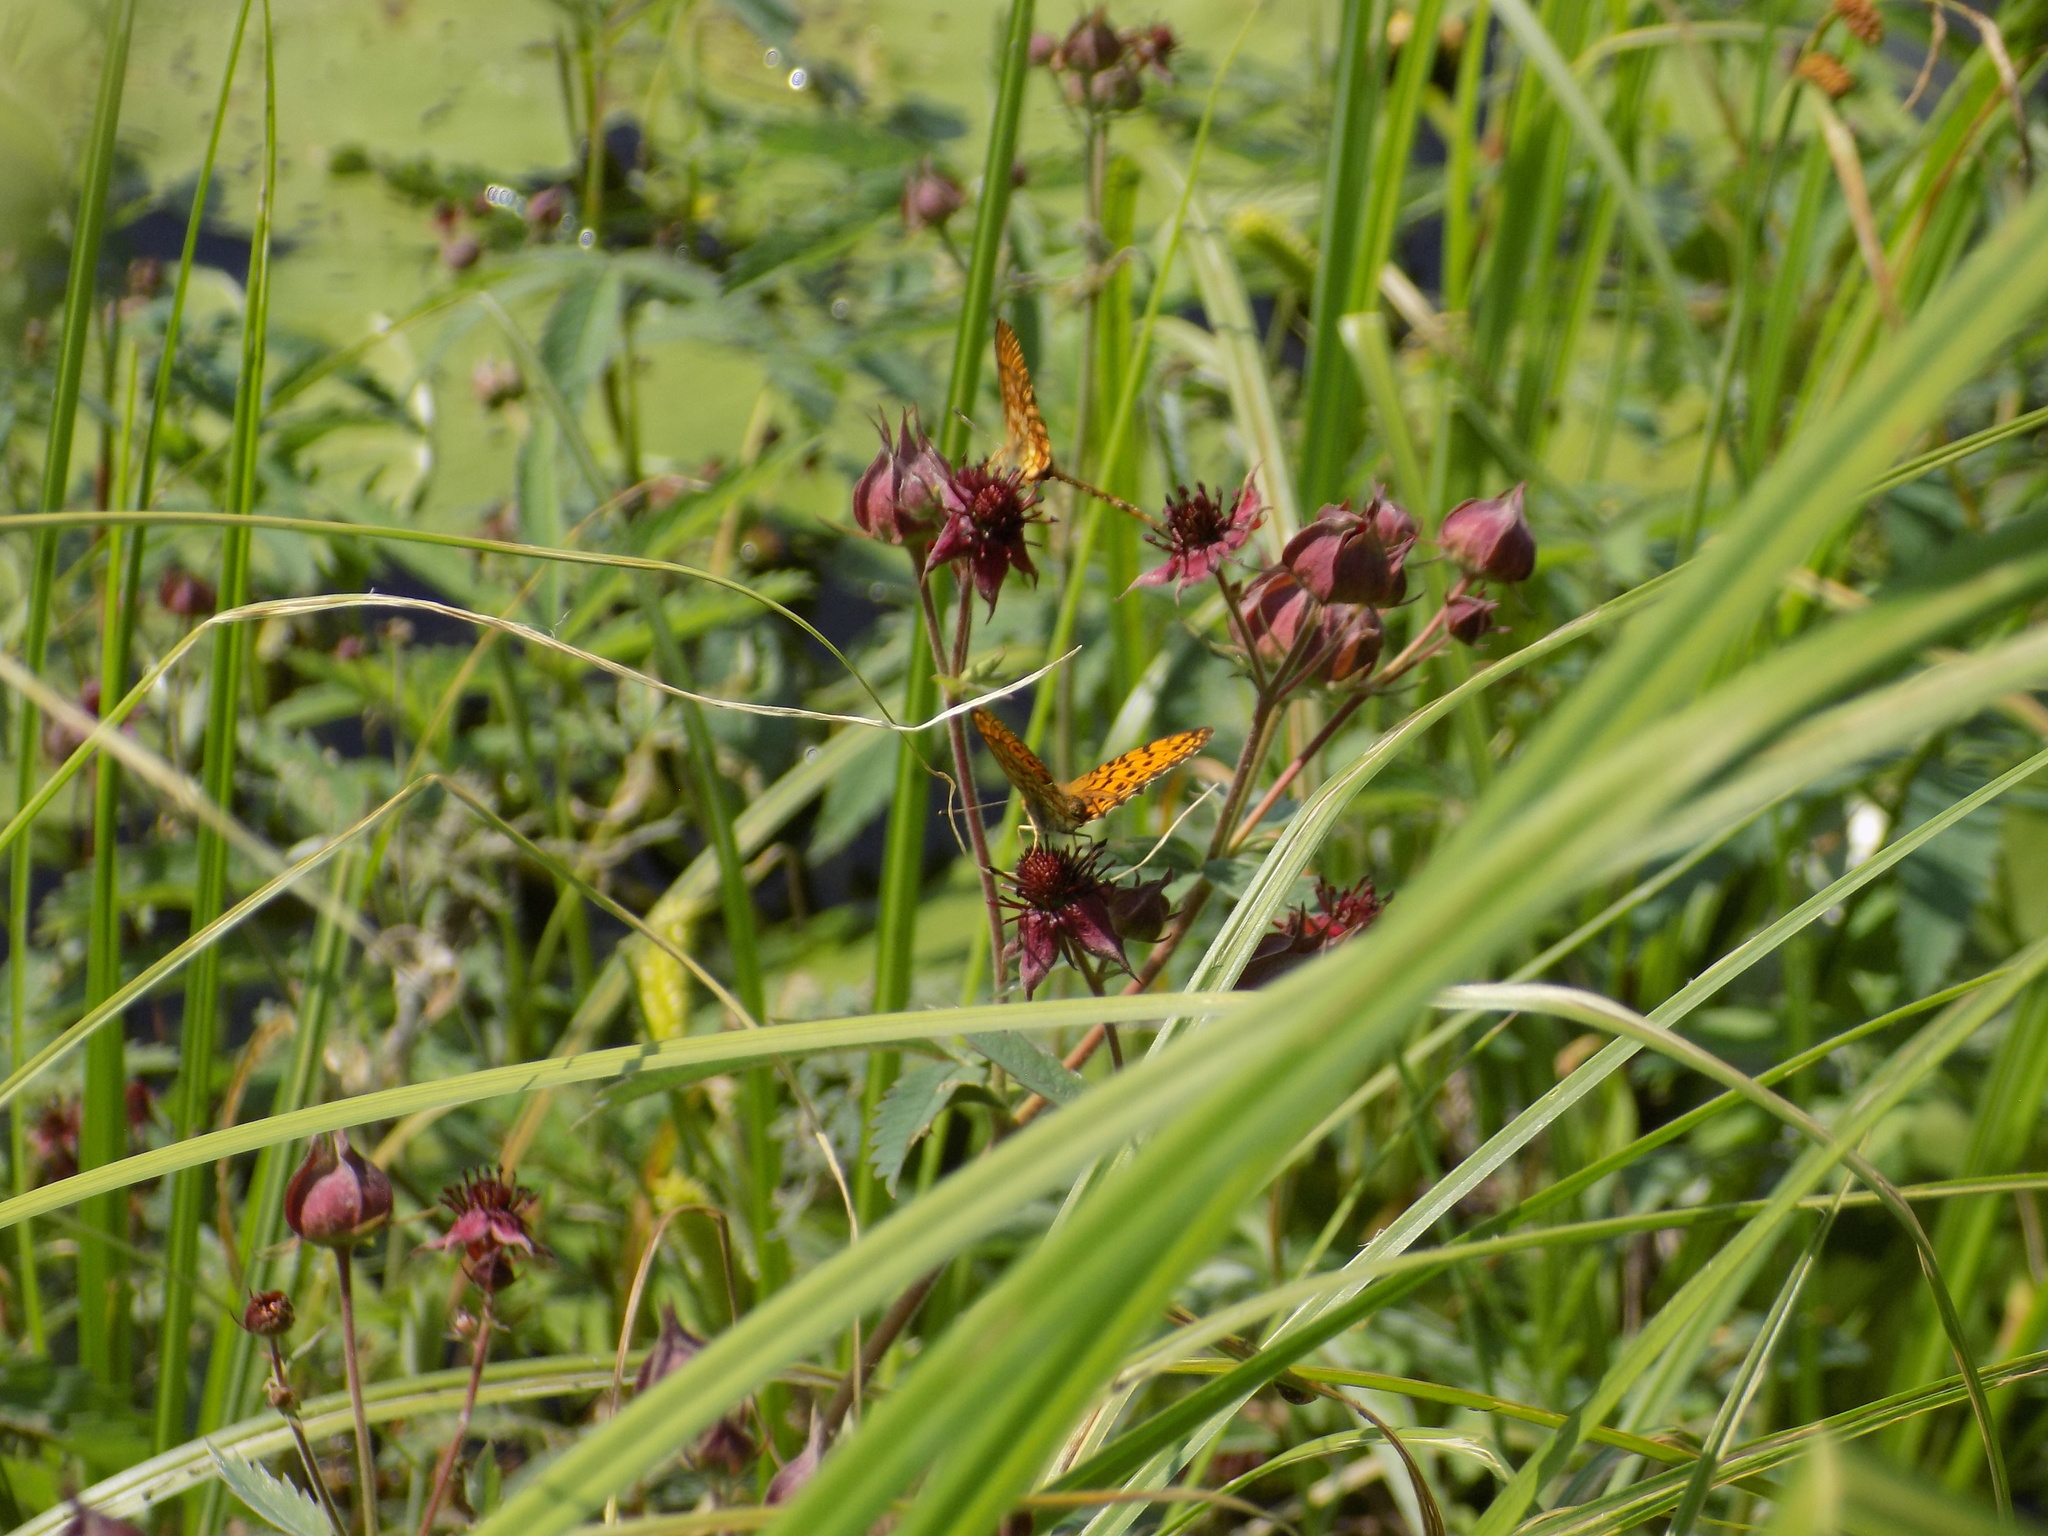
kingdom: Animalia
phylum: Arthropoda
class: Insecta
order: Lepidoptera
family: Nymphalidae
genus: Brenthis
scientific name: Brenthis ino
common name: Lesser marbled fritillary
